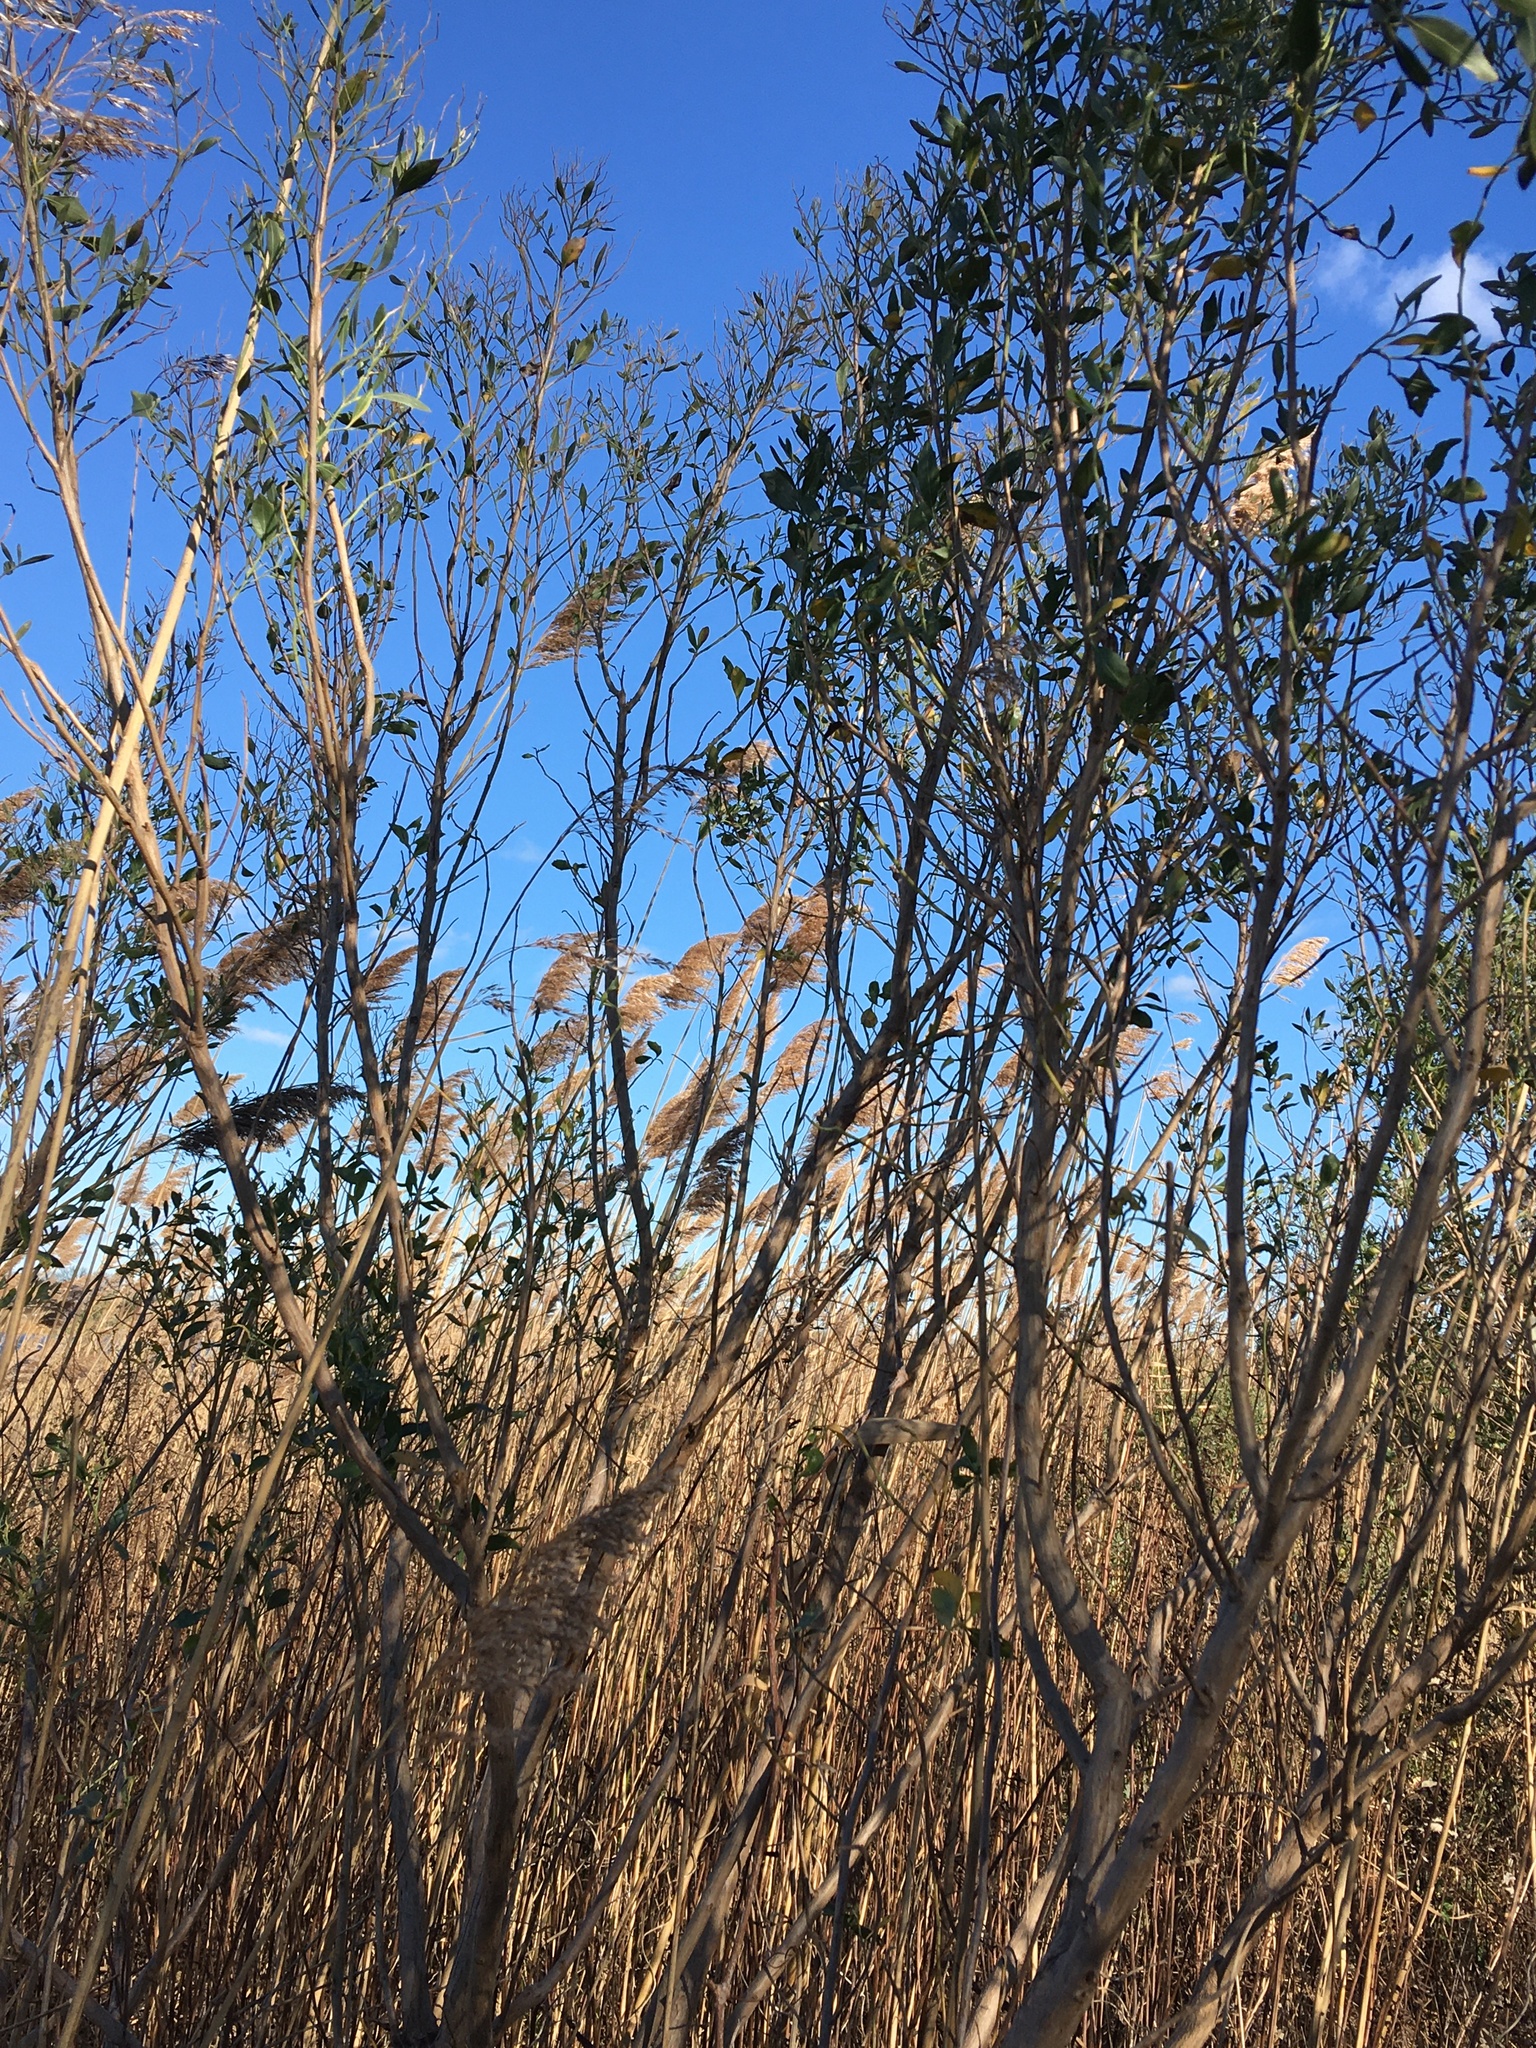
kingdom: Plantae
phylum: Tracheophyta
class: Magnoliopsida
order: Asterales
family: Asteraceae
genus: Baccharis
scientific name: Baccharis halimifolia
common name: Eastern baccharis
